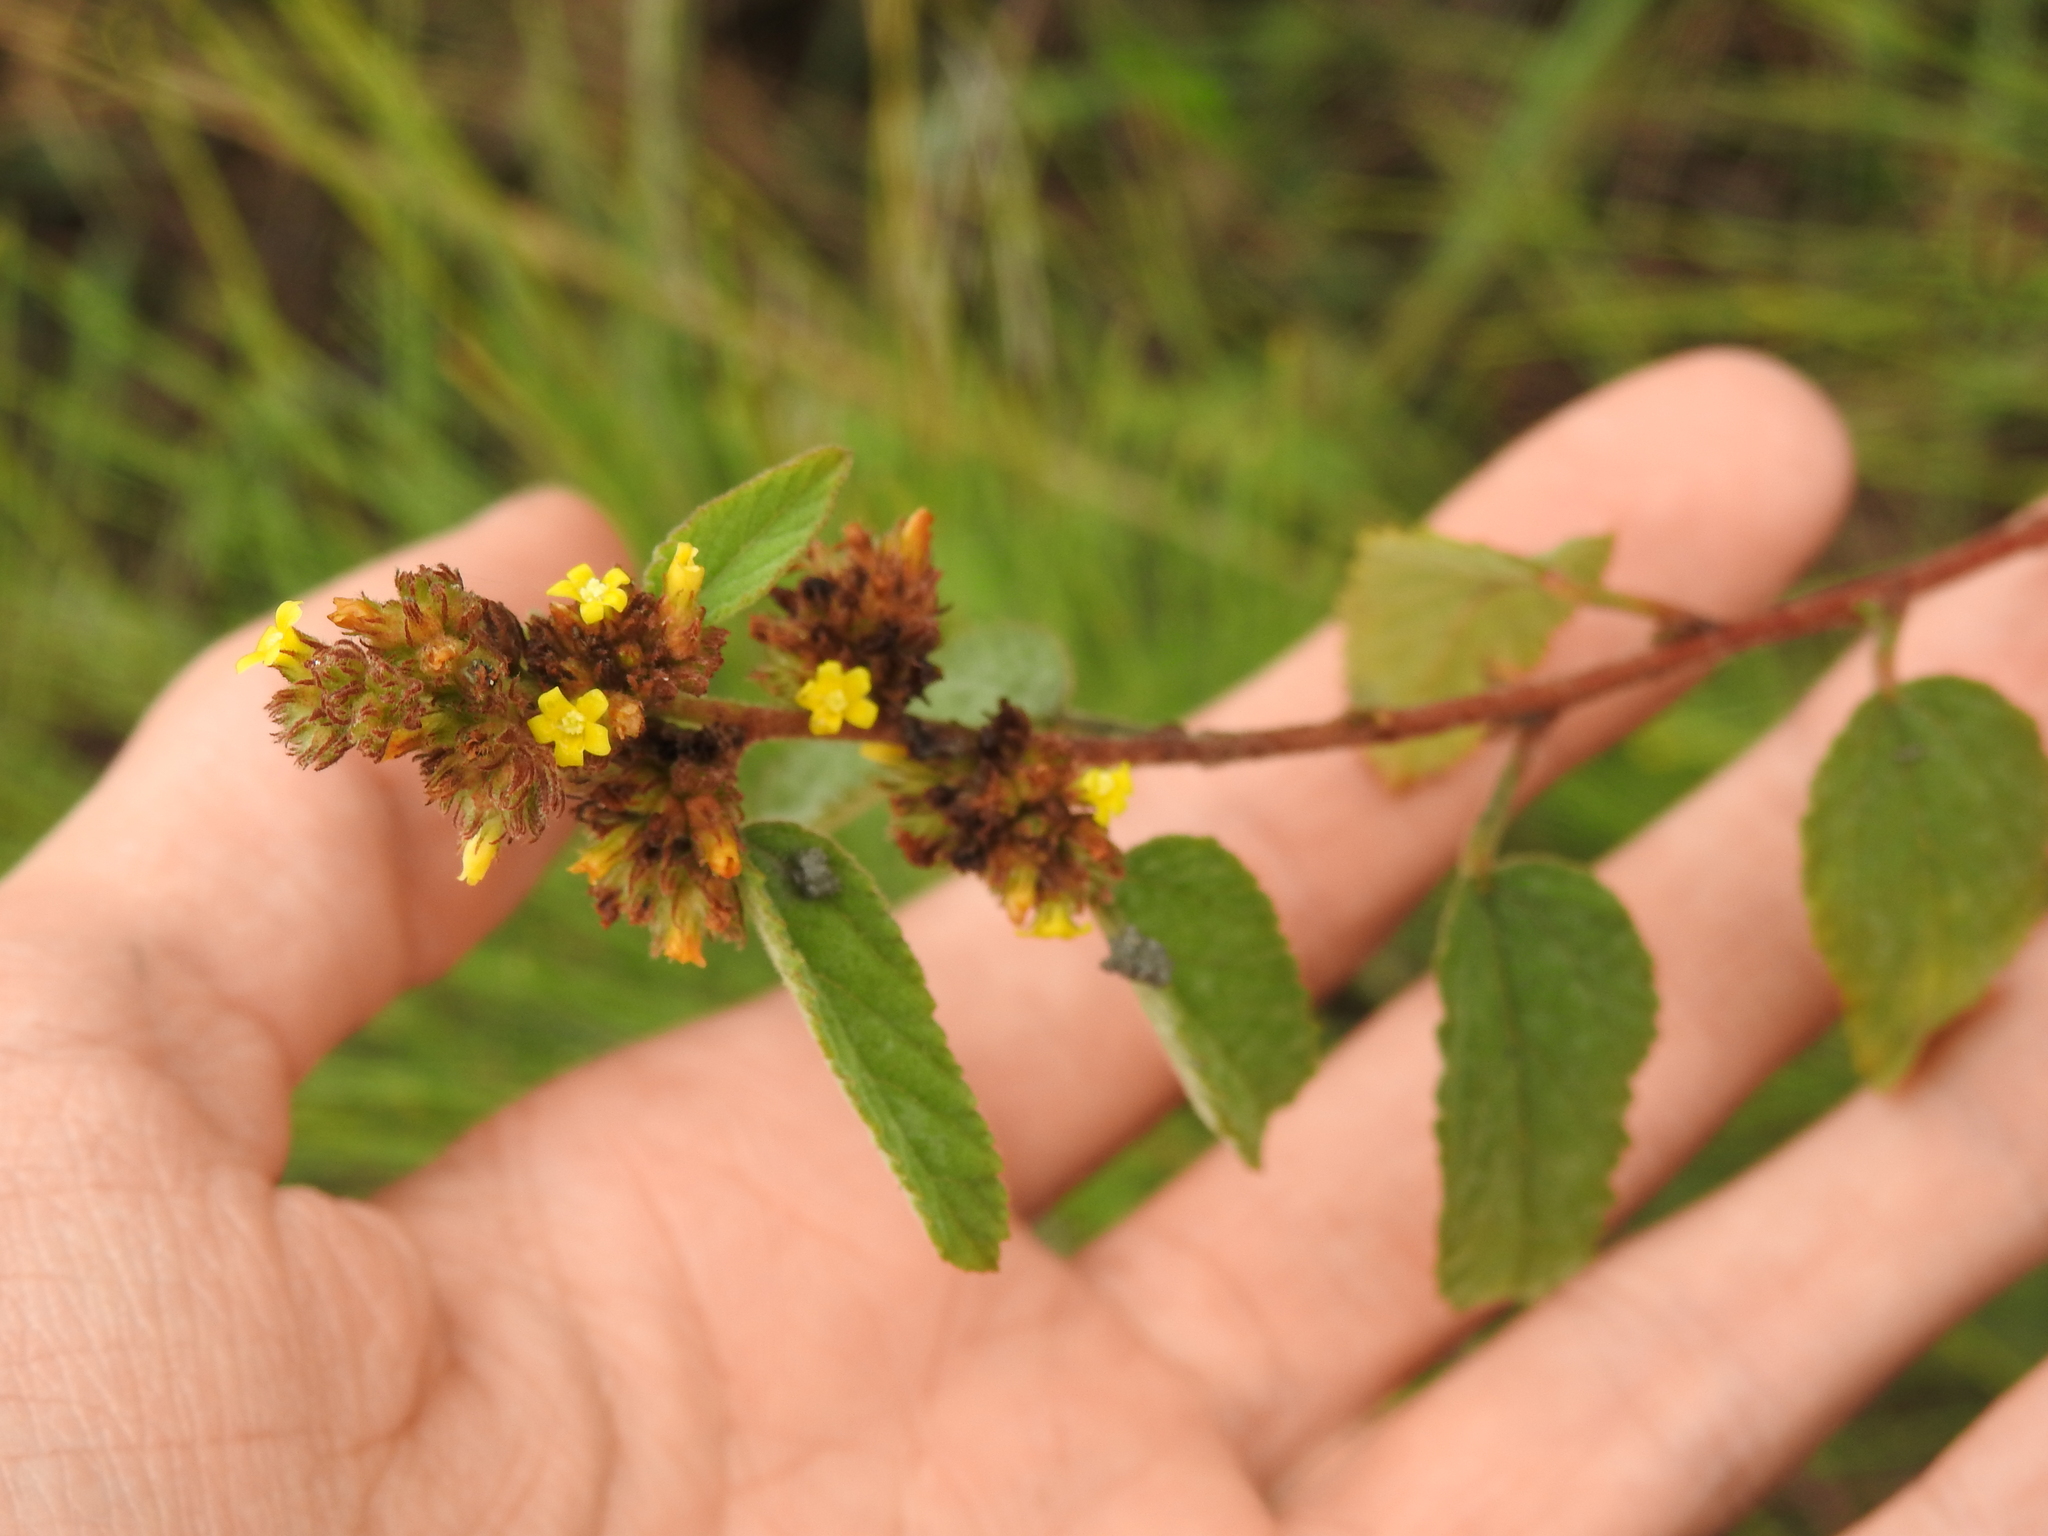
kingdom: Plantae
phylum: Tracheophyta
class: Magnoliopsida
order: Malvales
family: Malvaceae
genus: Waltheria
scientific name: Waltheria indica
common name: Leather-coat
